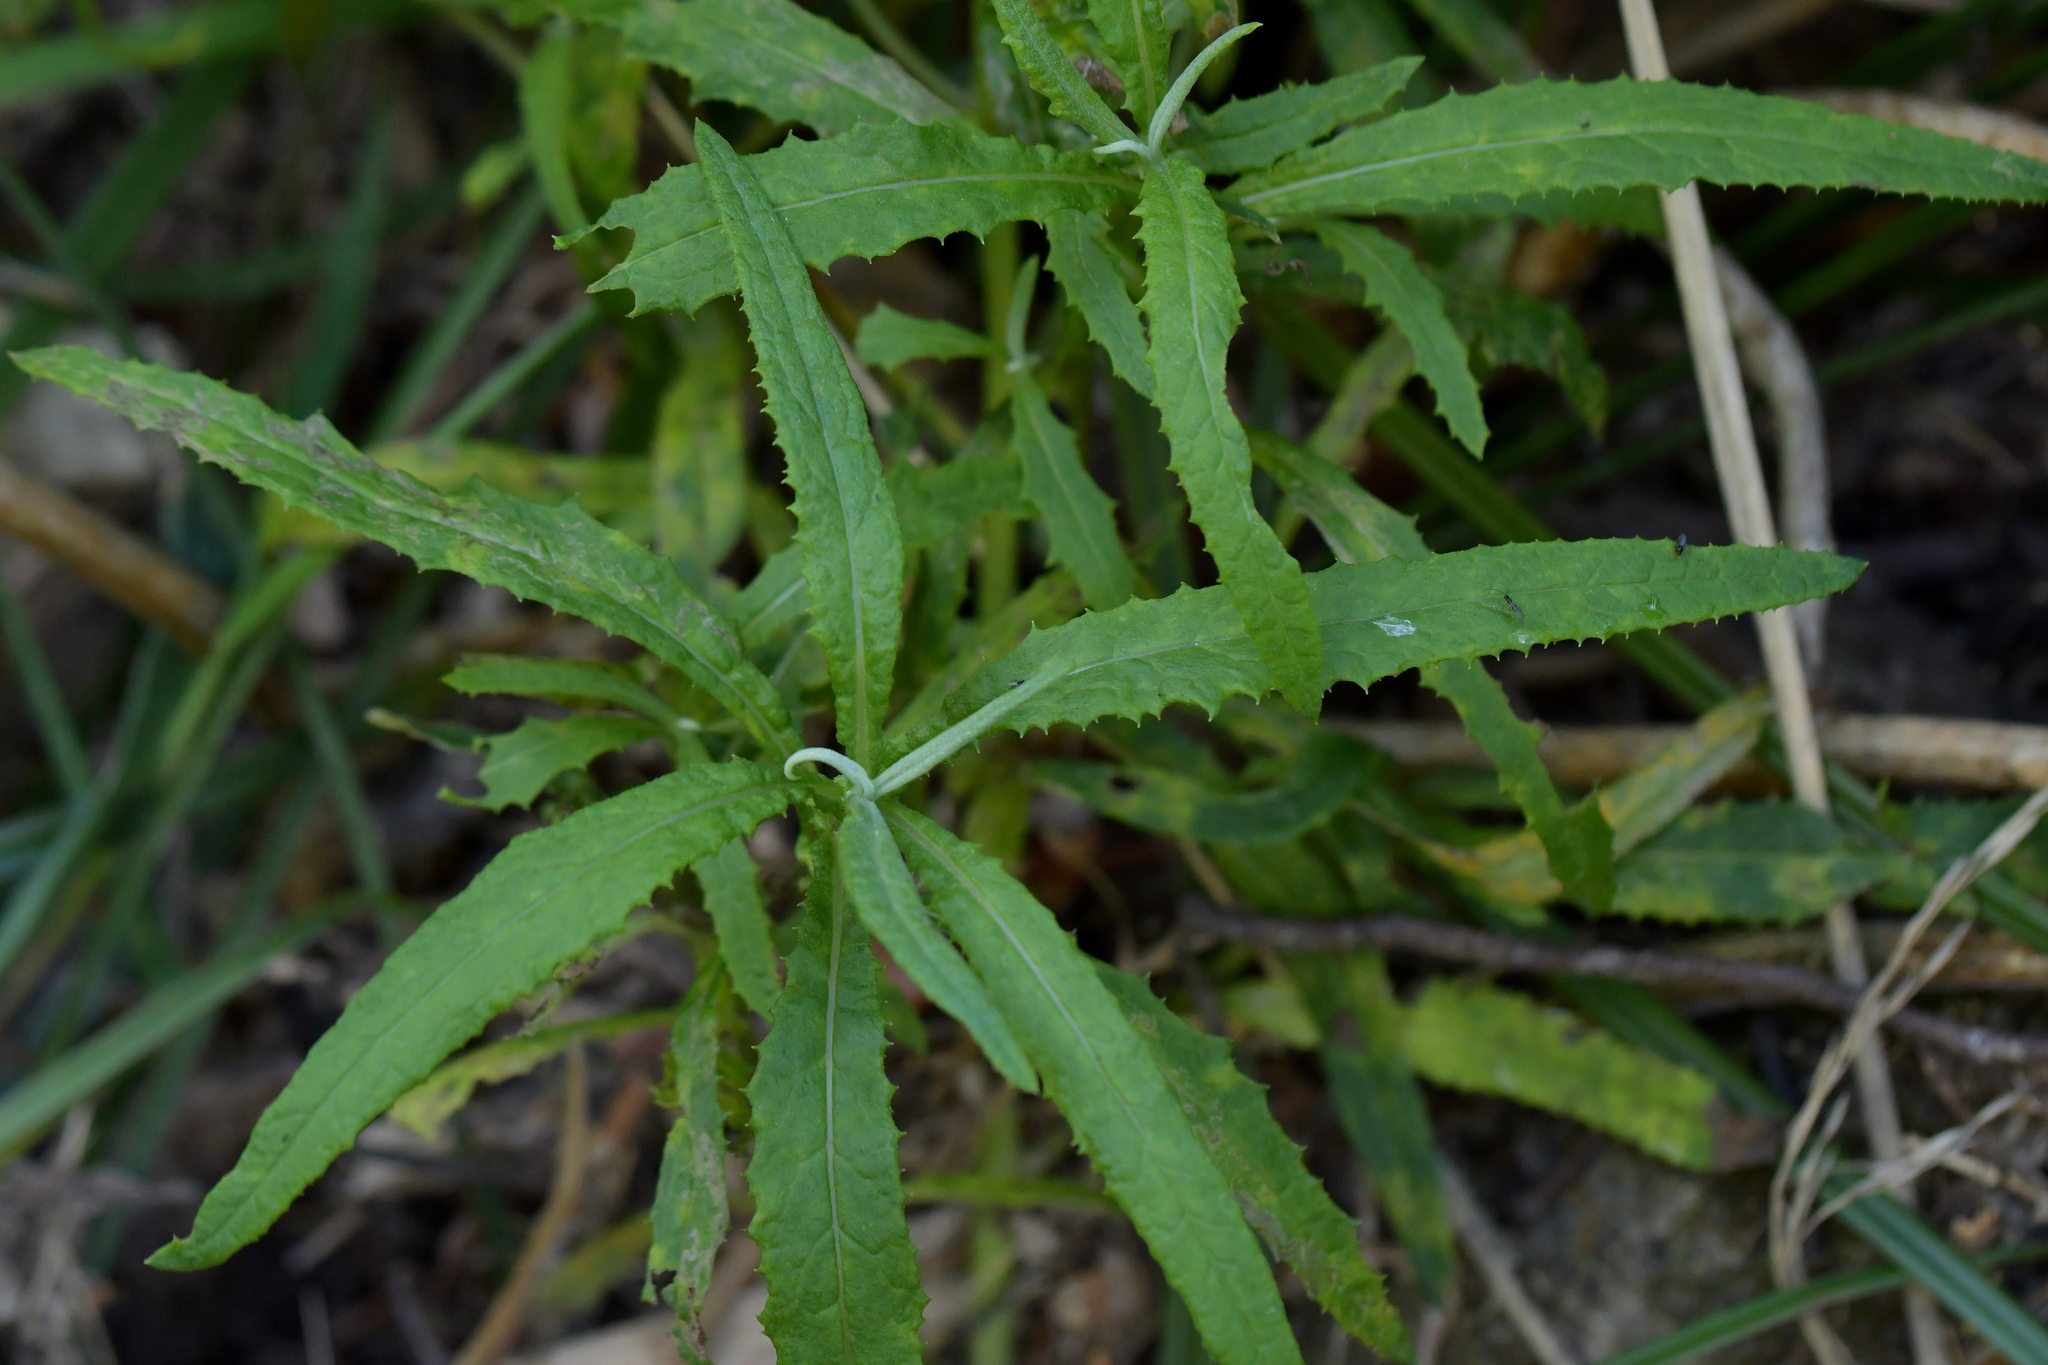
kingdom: Plantae
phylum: Tracheophyta
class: Magnoliopsida
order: Asterales
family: Asteraceae
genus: Senecio
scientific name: Senecio minimus
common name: Toothed fireweed
